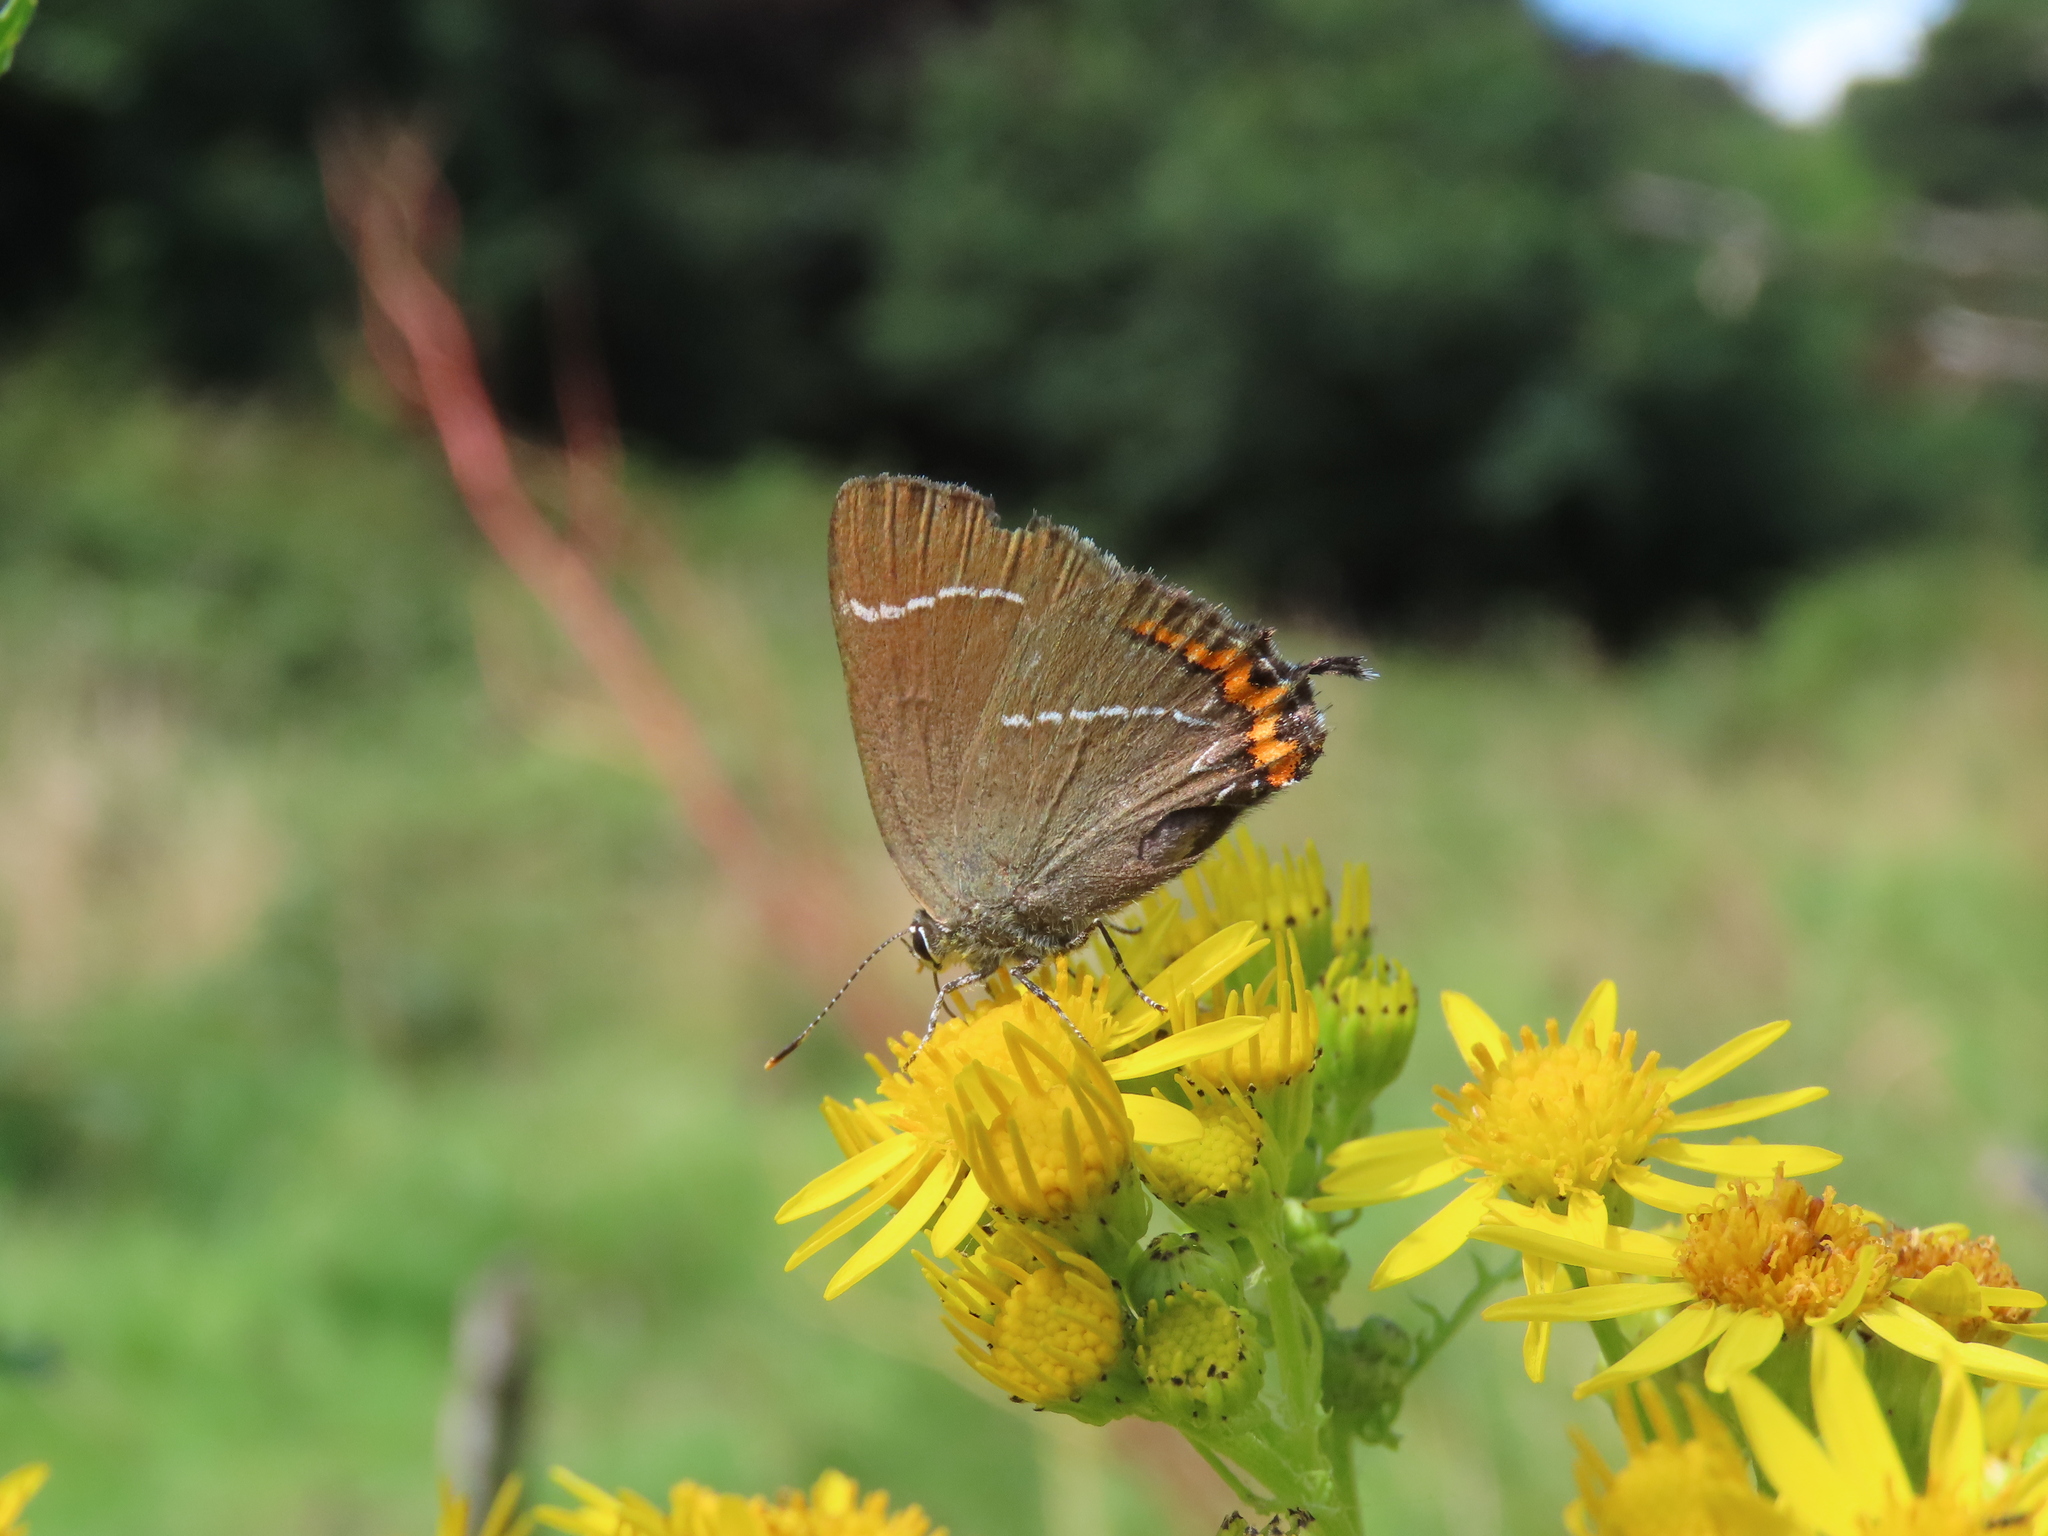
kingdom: Animalia
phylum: Arthropoda
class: Insecta
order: Lepidoptera
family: Lycaenidae
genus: Satyrium
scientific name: Satyrium w-album
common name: White-letter hairstreak
